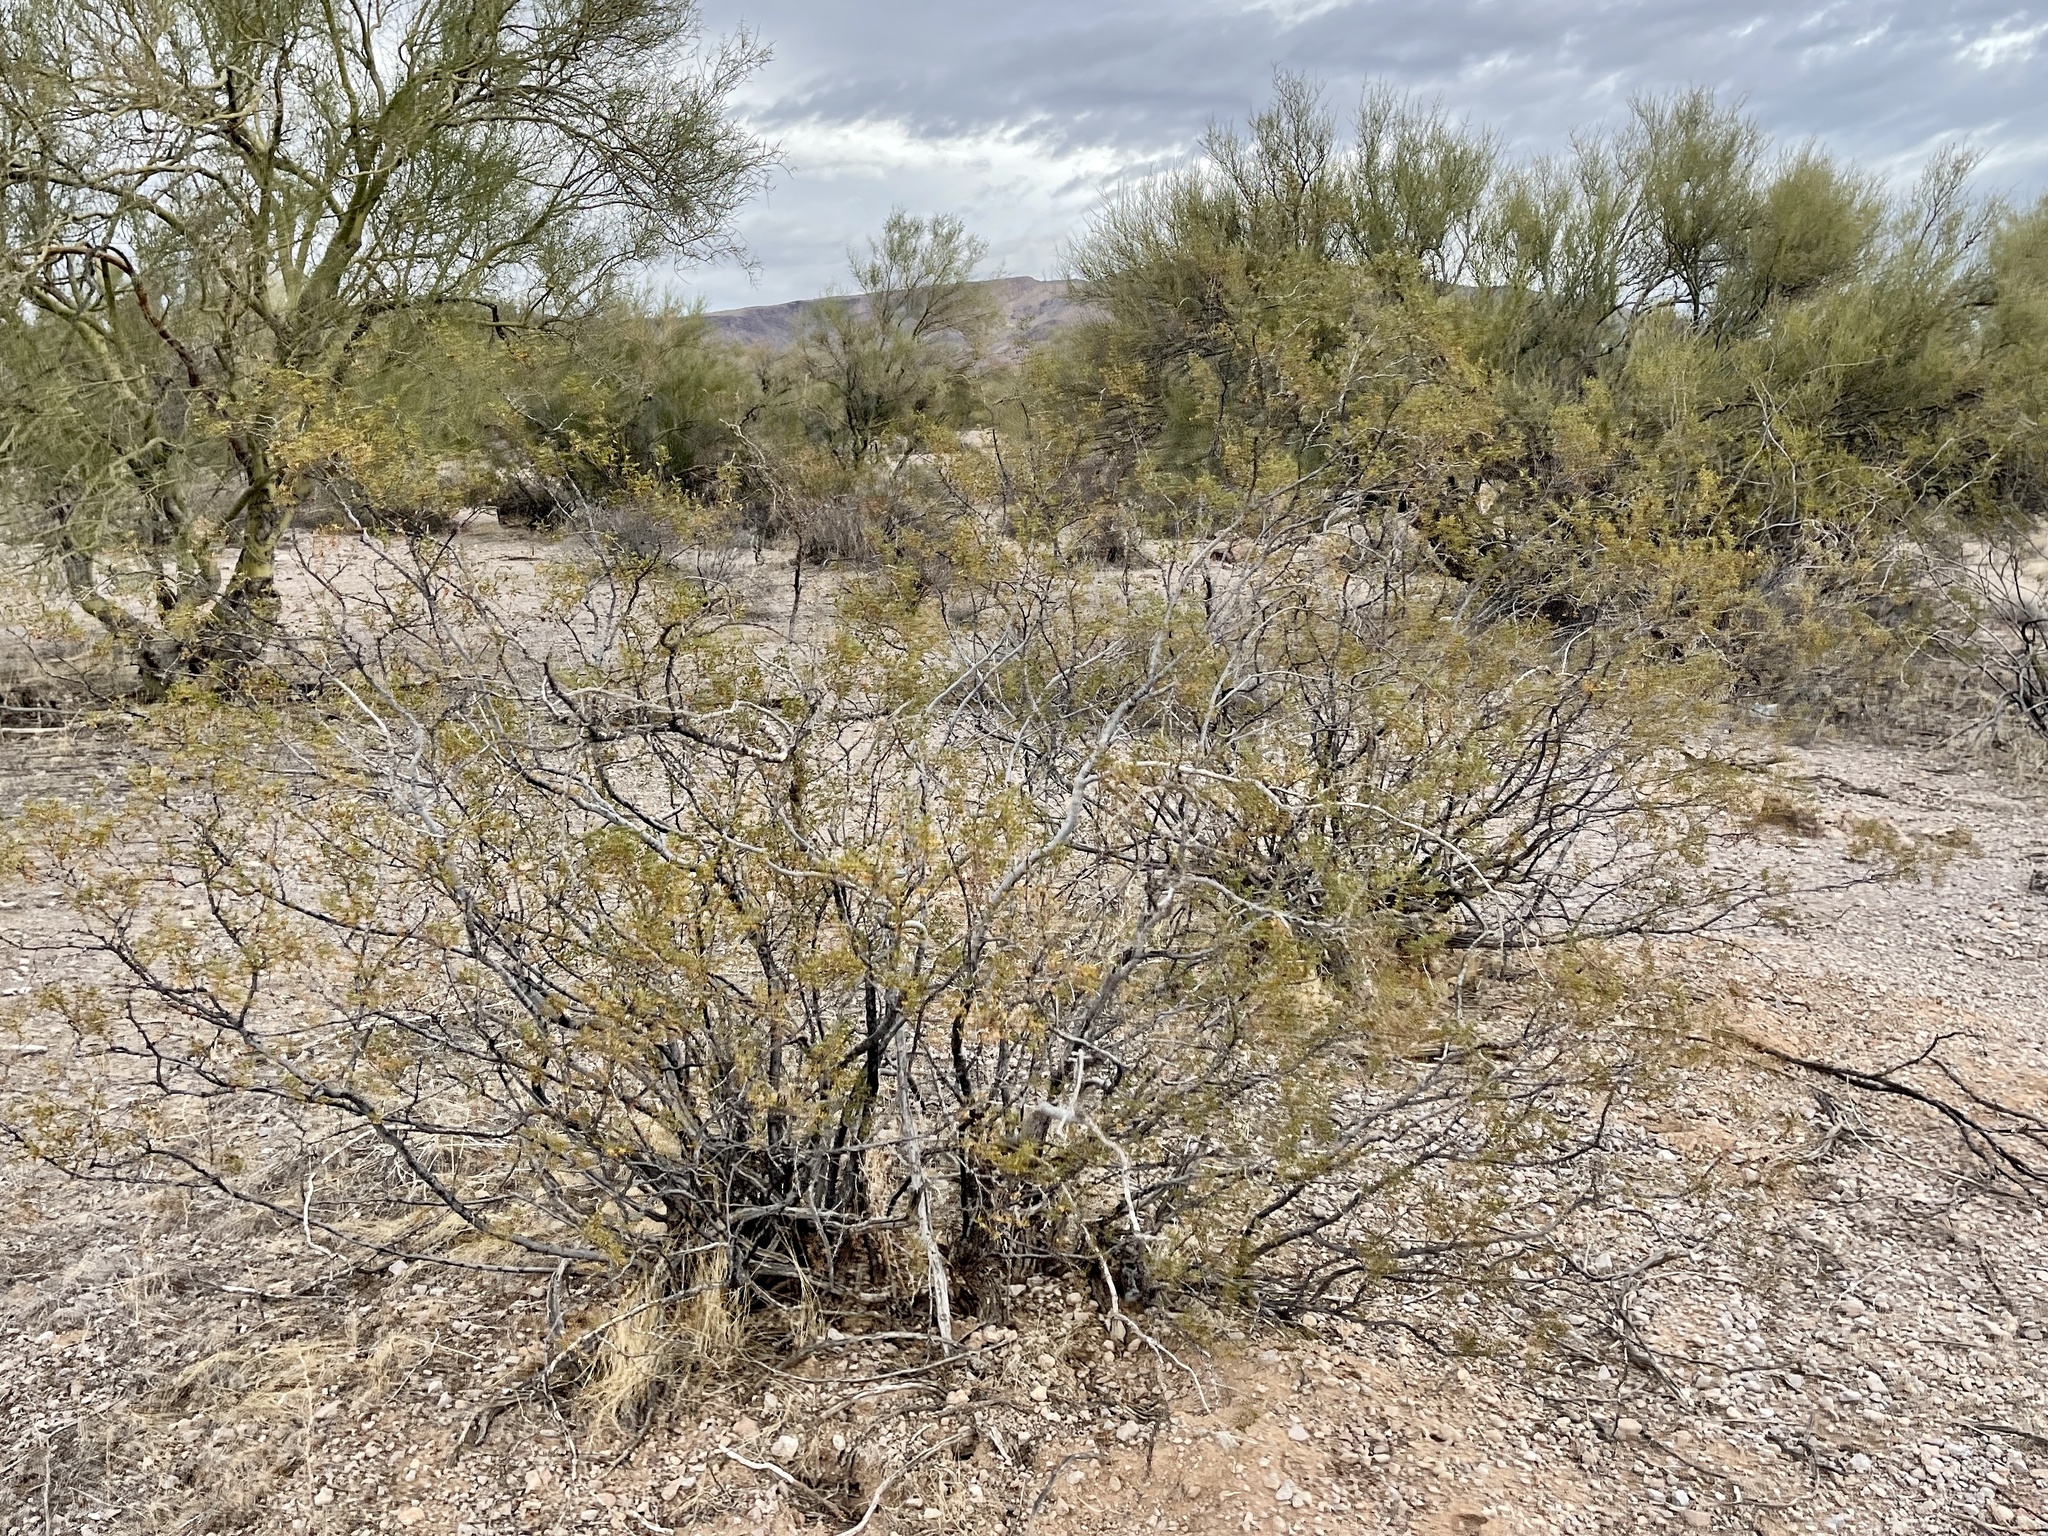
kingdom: Plantae
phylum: Tracheophyta
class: Magnoliopsida
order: Zygophyllales
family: Zygophyllaceae
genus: Larrea
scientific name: Larrea tridentata
